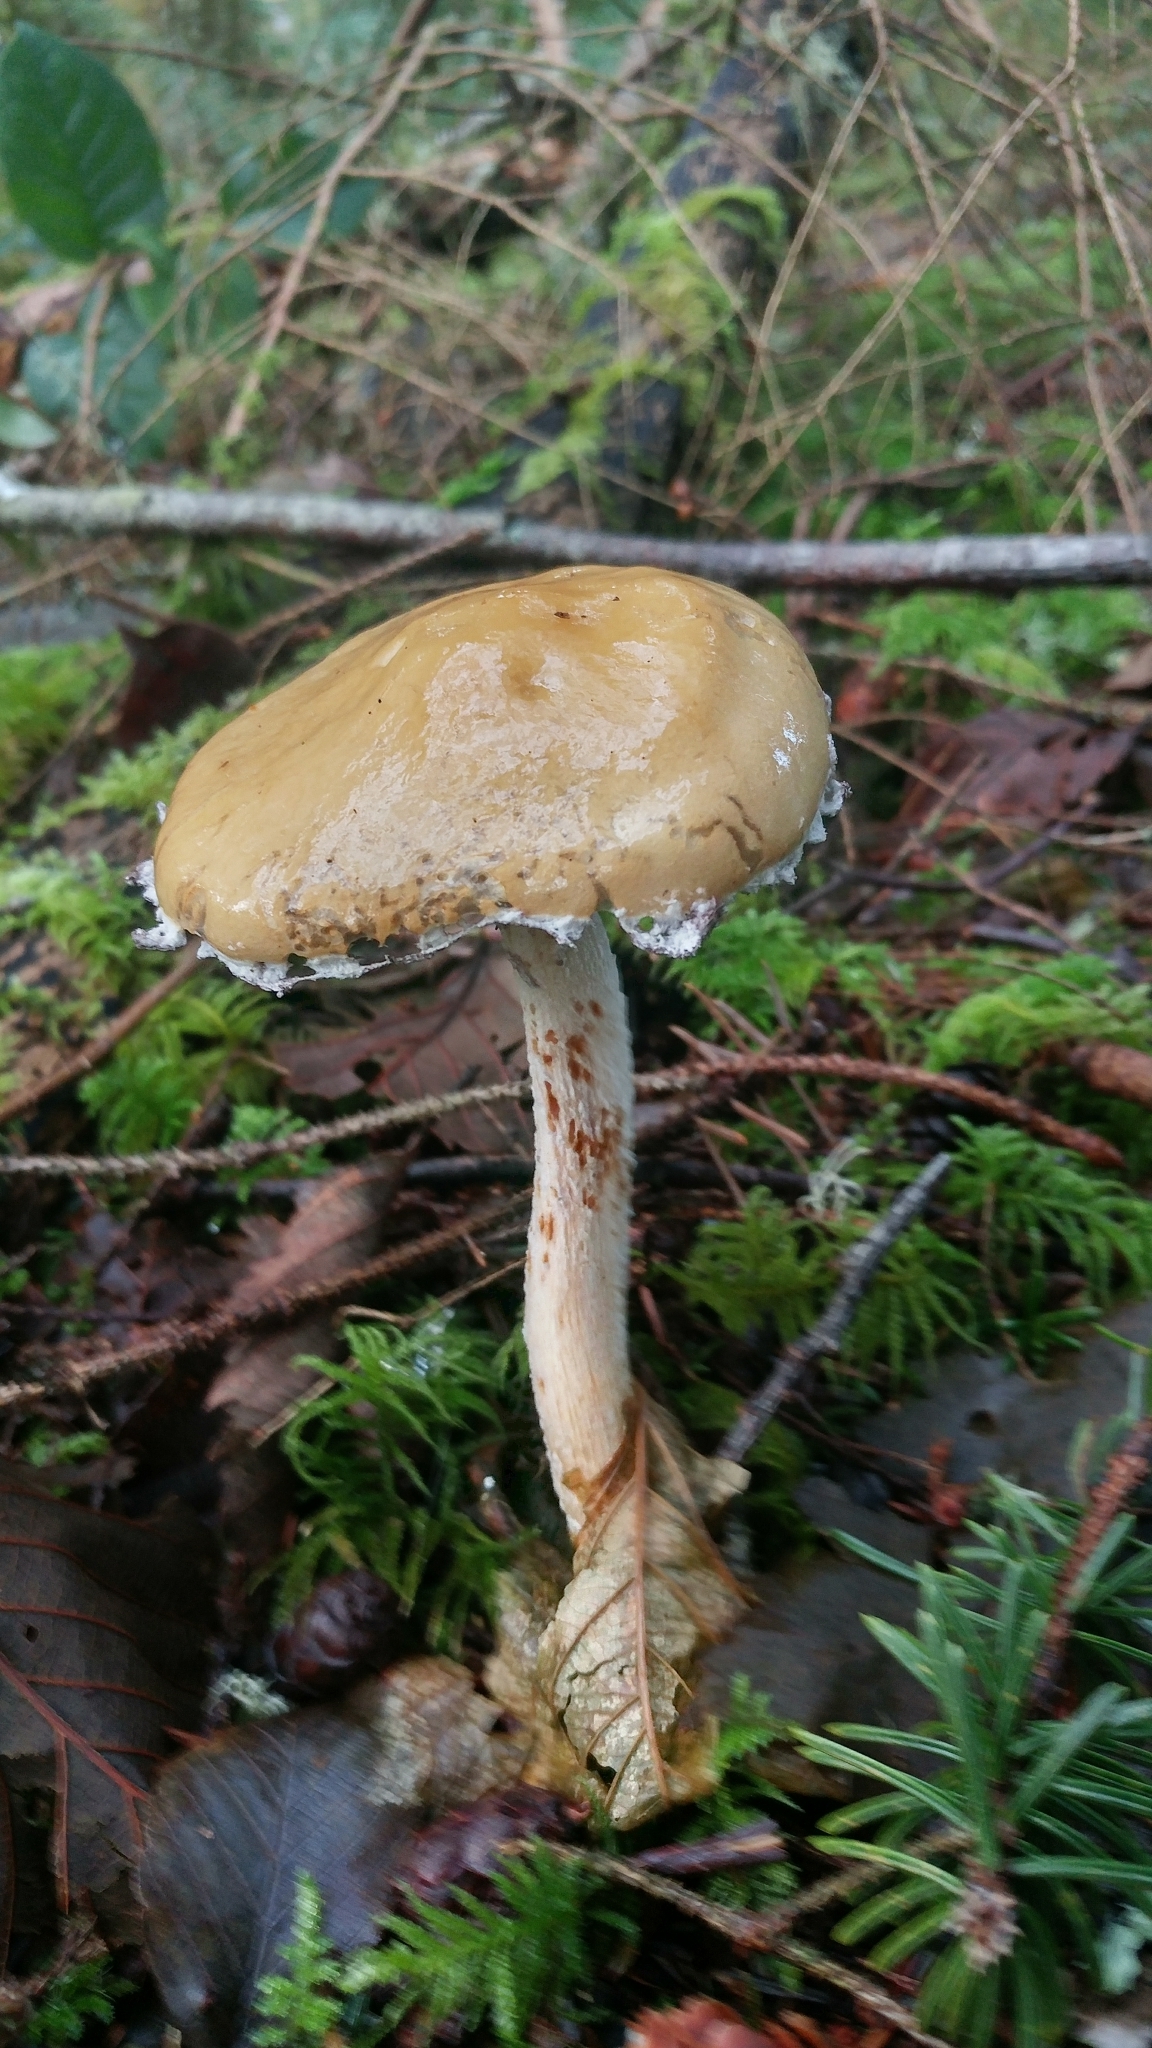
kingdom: Fungi
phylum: Basidiomycota
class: Agaricomycetes
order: Agaricales
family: Strophariaceae
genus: Stropharia
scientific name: Stropharia ambigua
